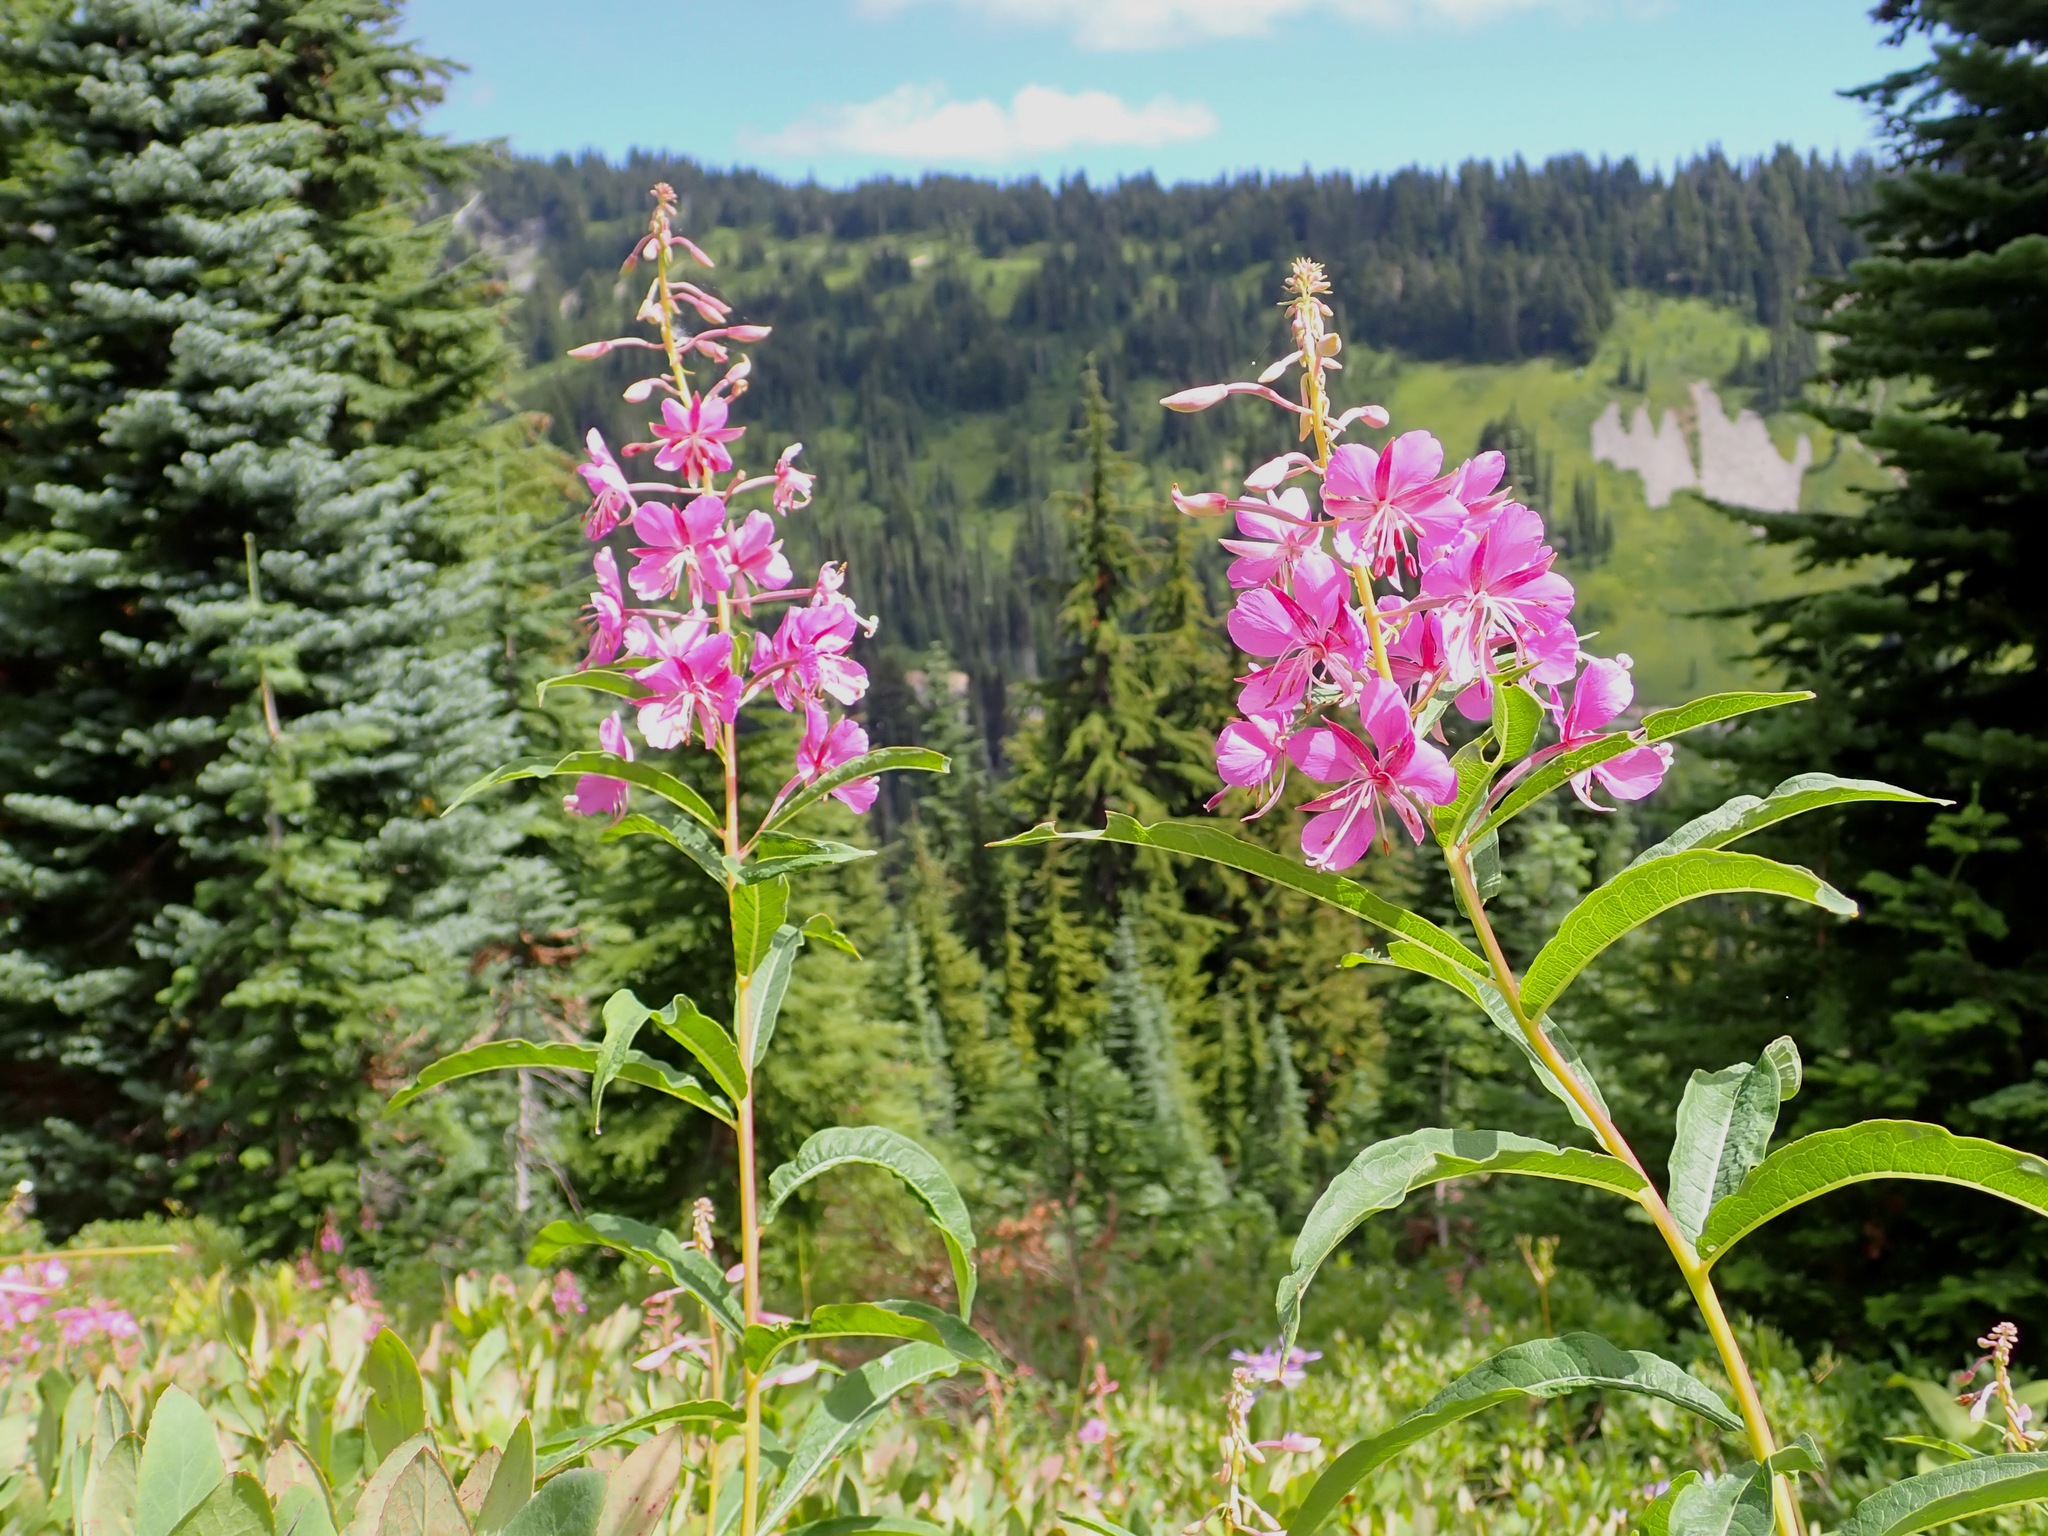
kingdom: Plantae
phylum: Tracheophyta
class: Magnoliopsida
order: Myrtales
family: Onagraceae
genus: Chamaenerion
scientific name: Chamaenerion angustifolium
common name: Fireweed
